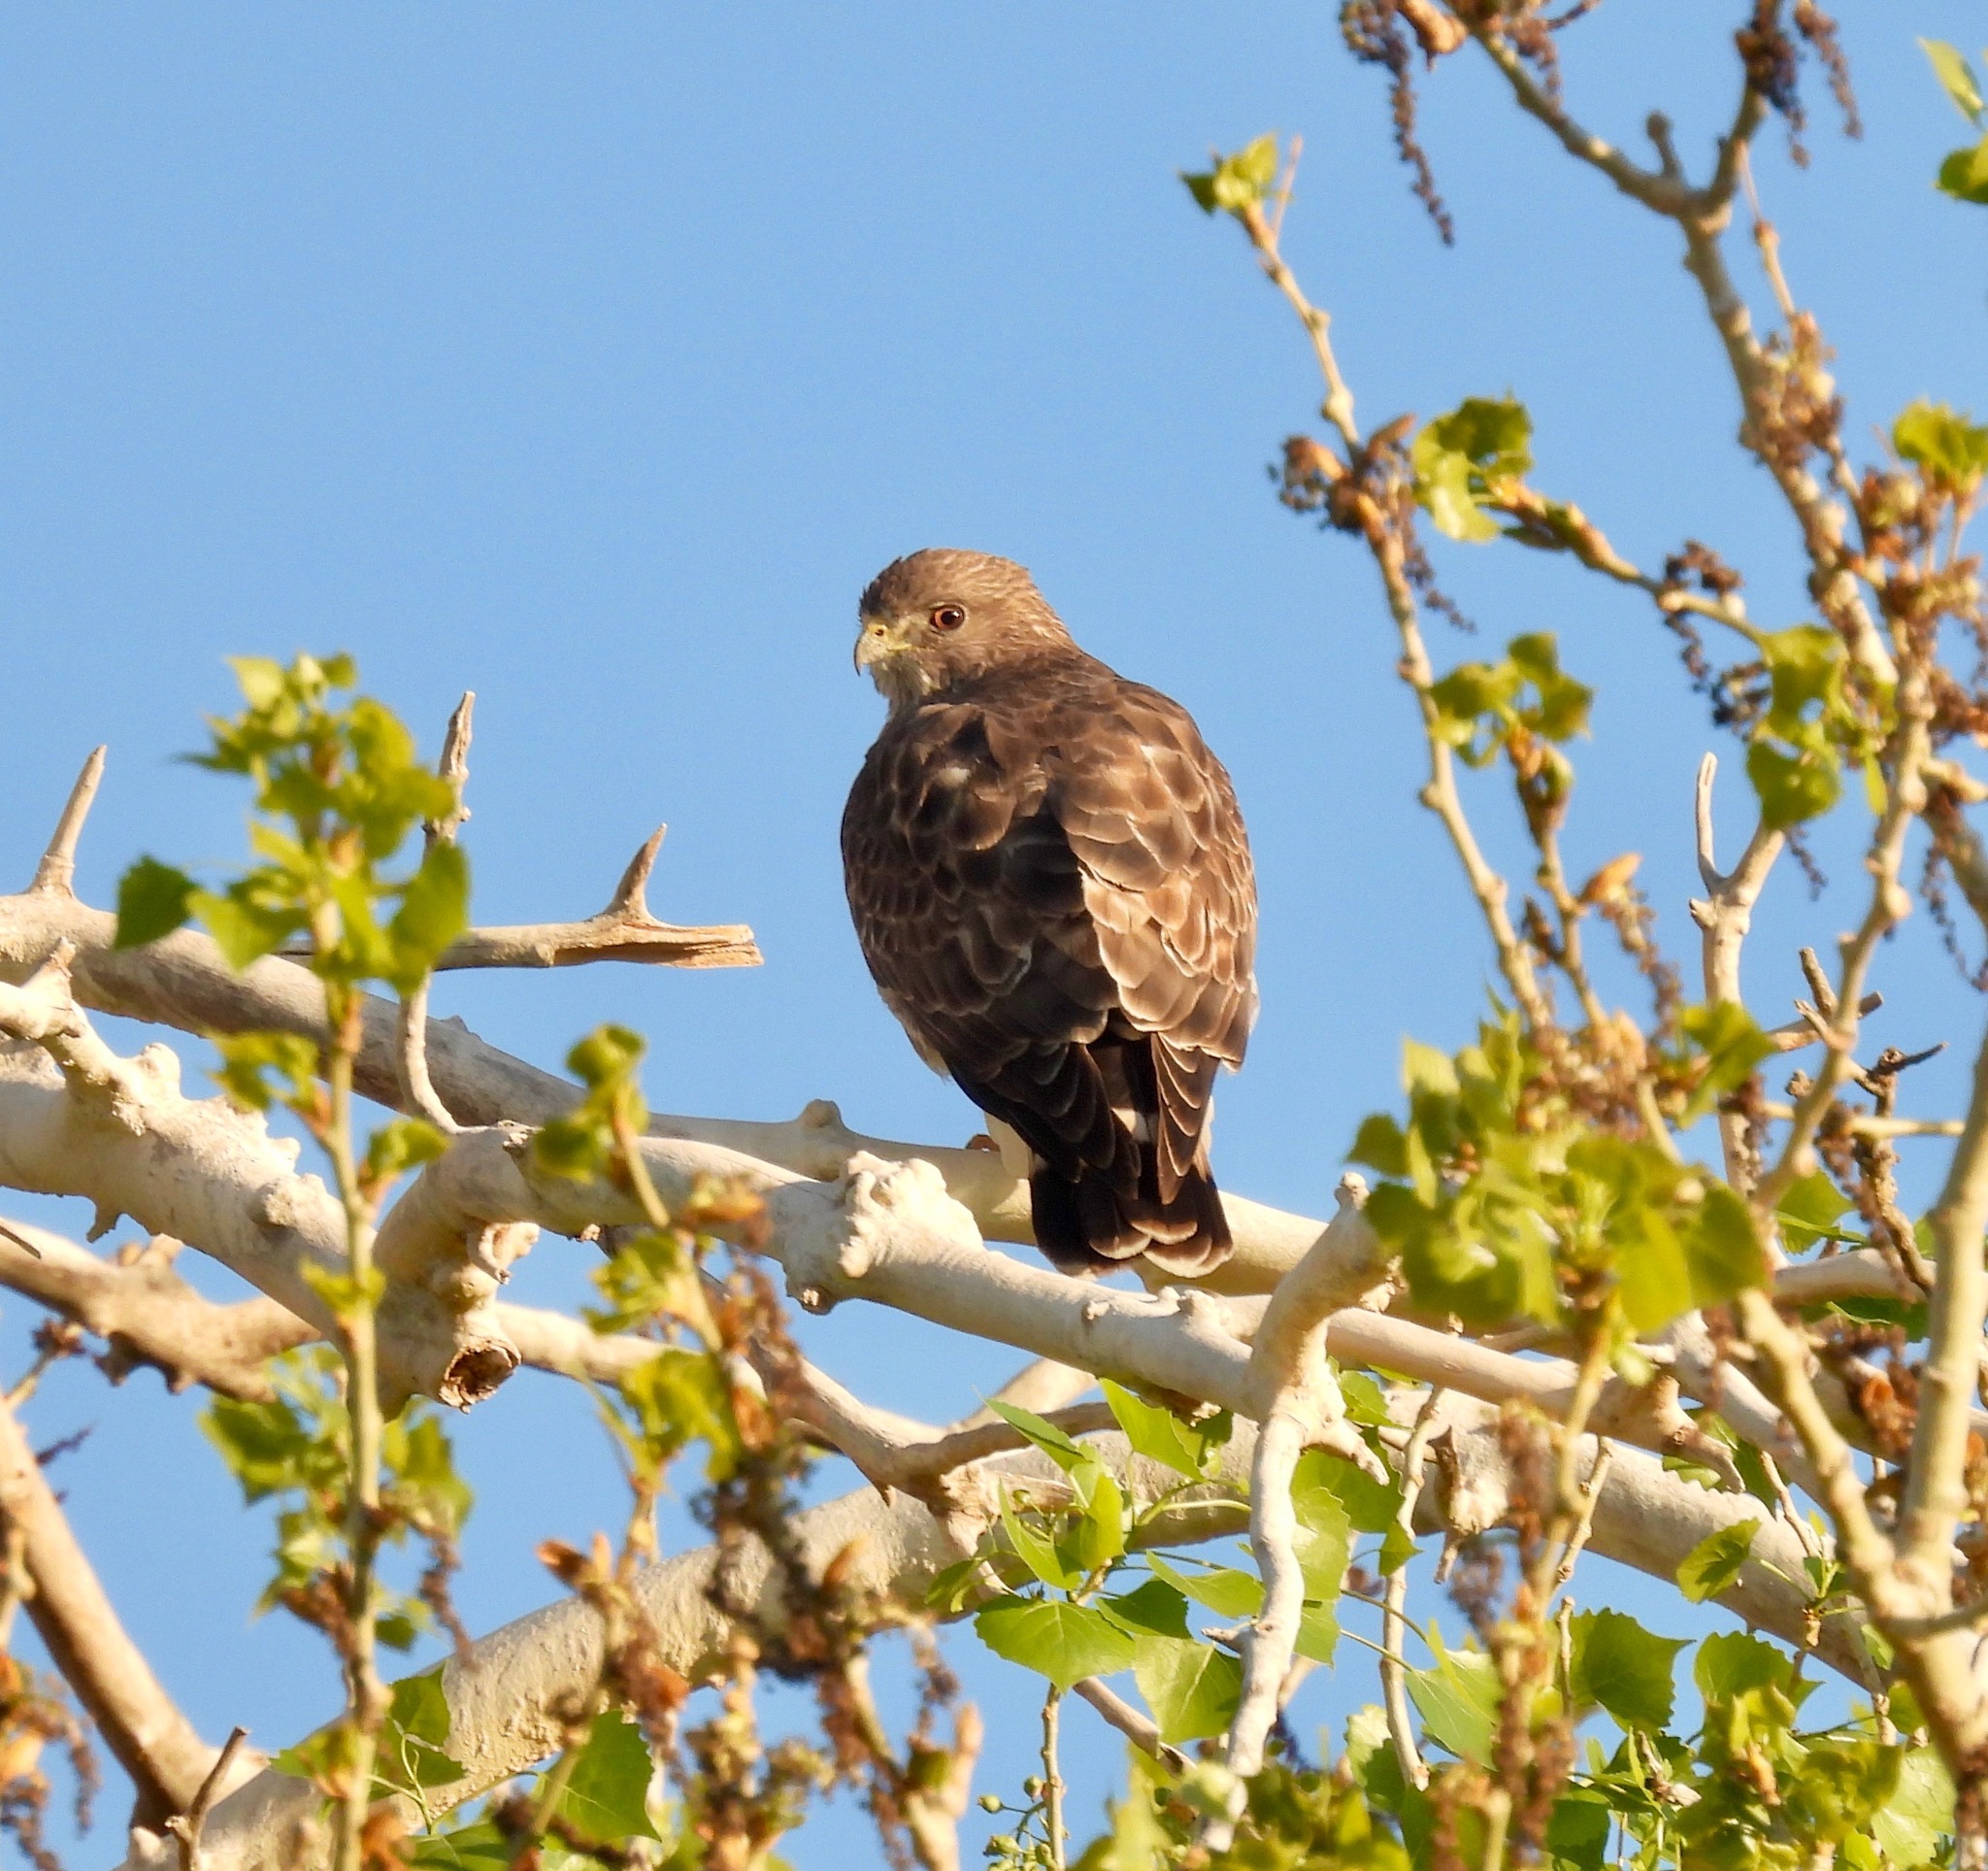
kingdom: Animalia
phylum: Chordata
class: Aves
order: Accipitriformes
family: Accipitridae
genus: Buteo
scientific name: Buteo platypterus
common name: Broad-winged hawk
